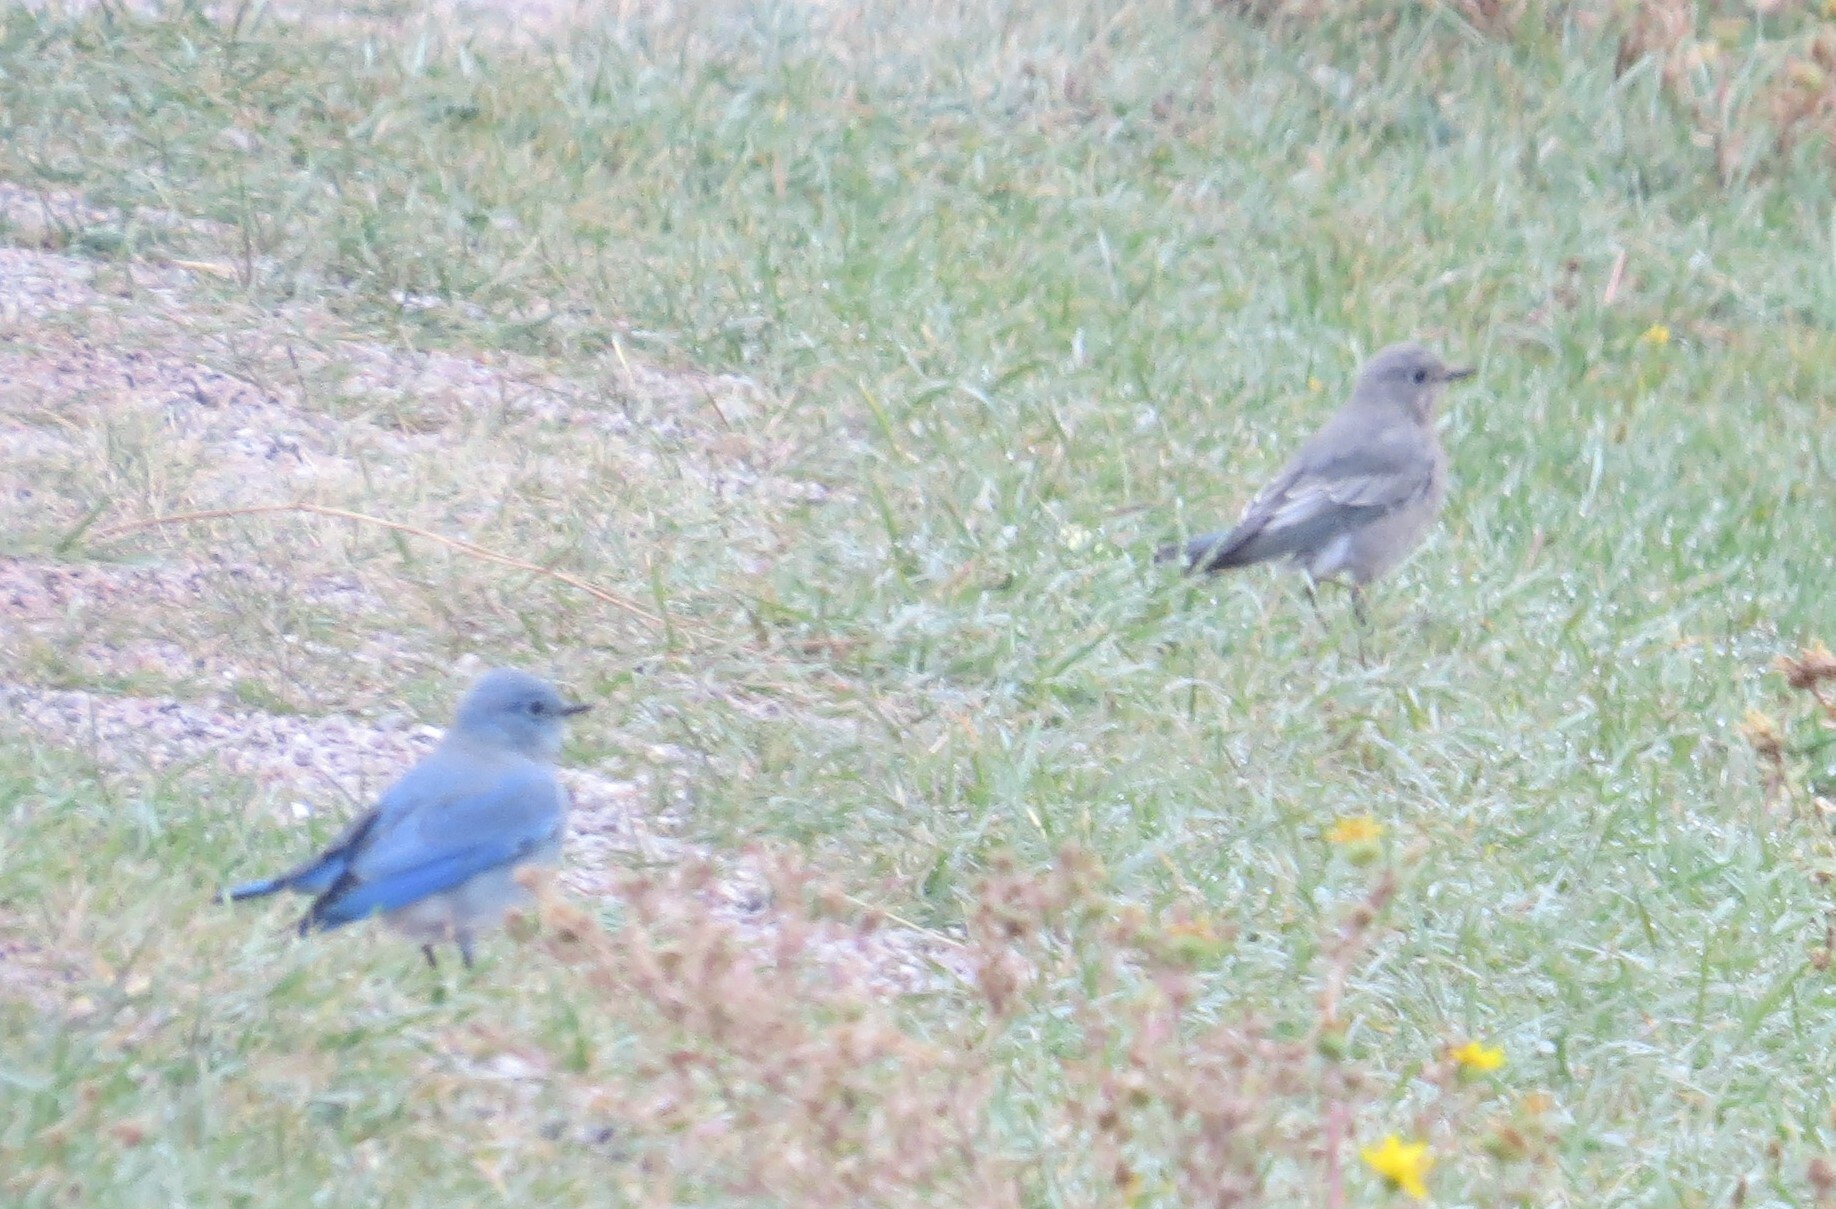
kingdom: Animalia
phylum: Chordata
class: Aves
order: Passeriformes
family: Turdidae
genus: Sialia
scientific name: Sialia currucoides
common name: Mountain bluebird
